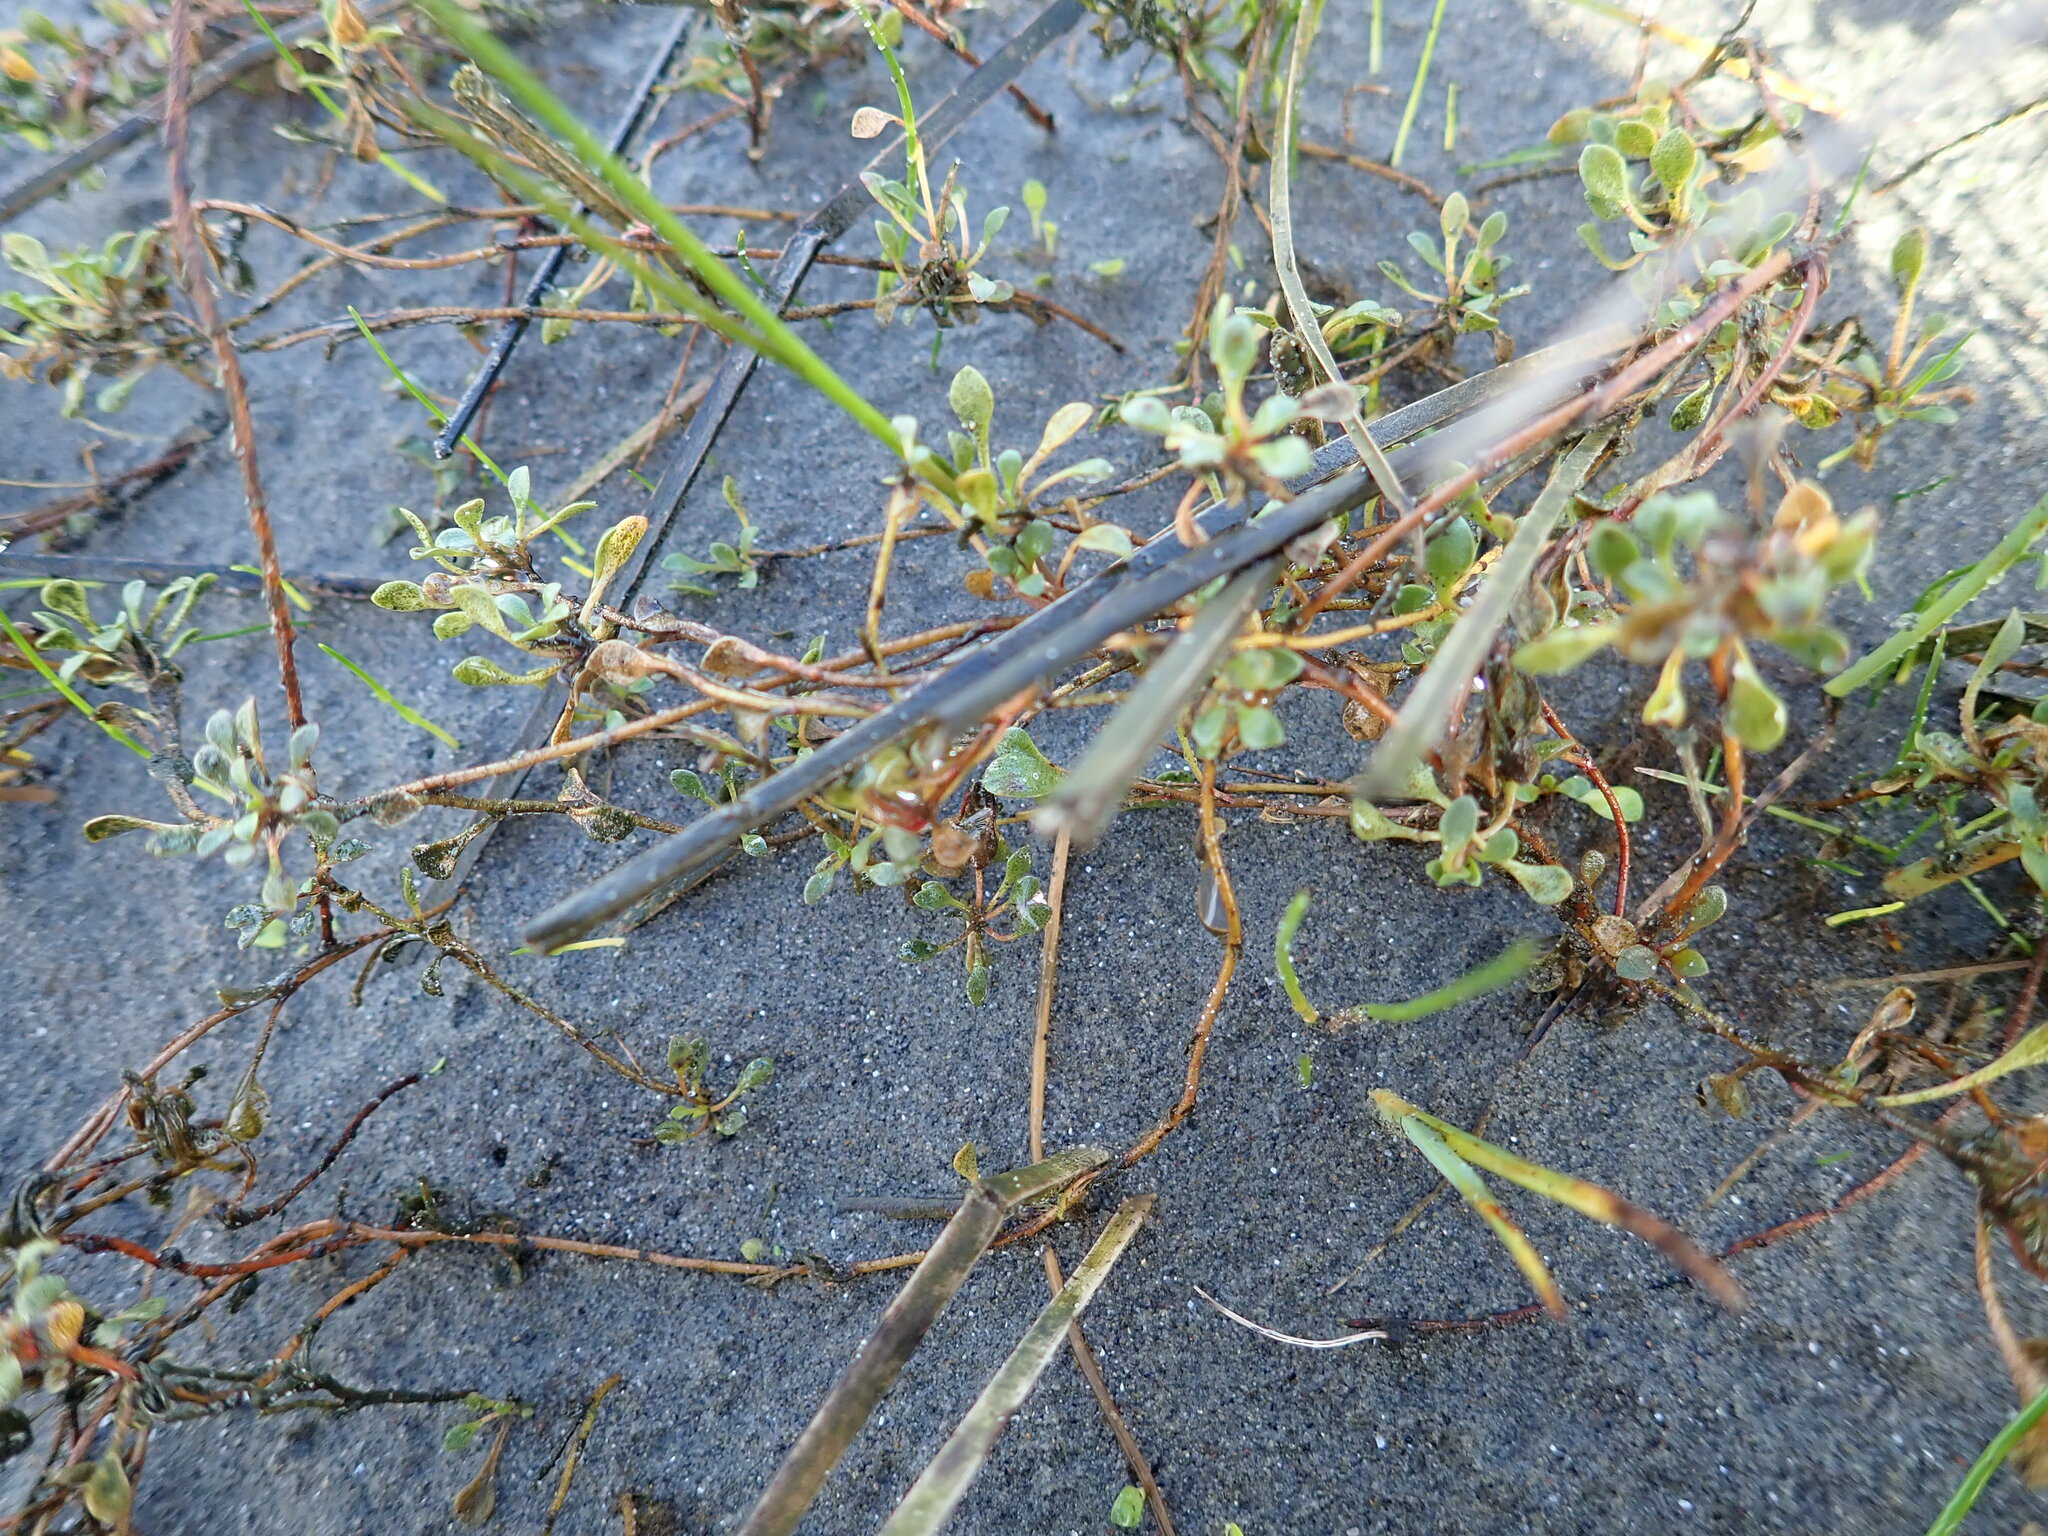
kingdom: Plantae
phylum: Tracheophyta
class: Magnoliopsida
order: Ericales
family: Primulaceae
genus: Samolus
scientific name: Samolus repens
